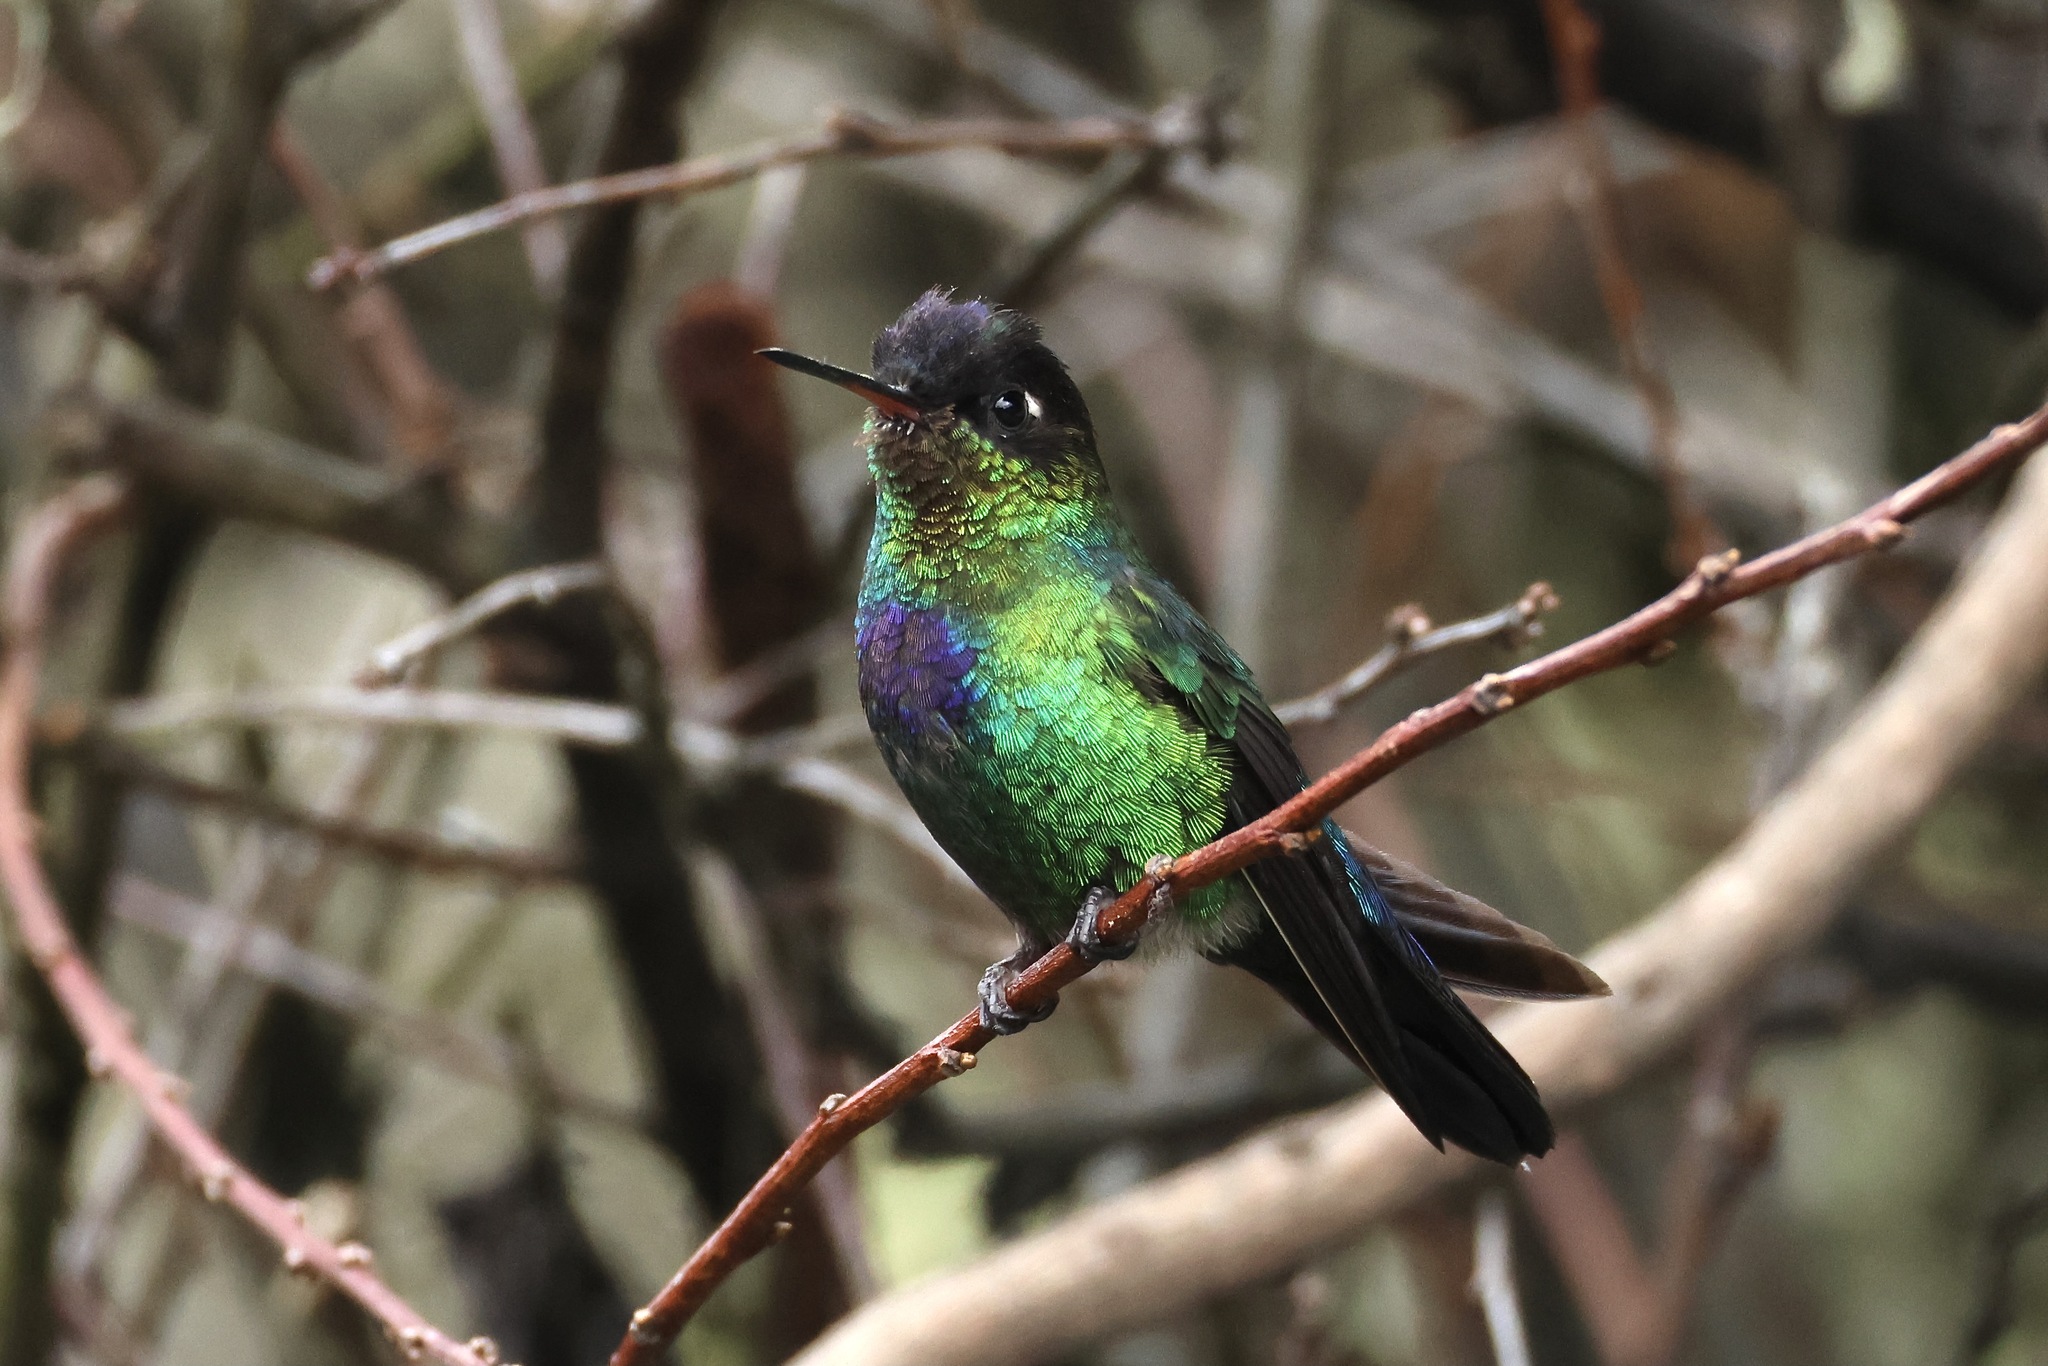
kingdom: Animalia
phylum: Chordata
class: Aves
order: Apodiformes
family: Trochilidae
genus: Panterpe
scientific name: Panterpe insignis
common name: Fiery-throated hummingbird
